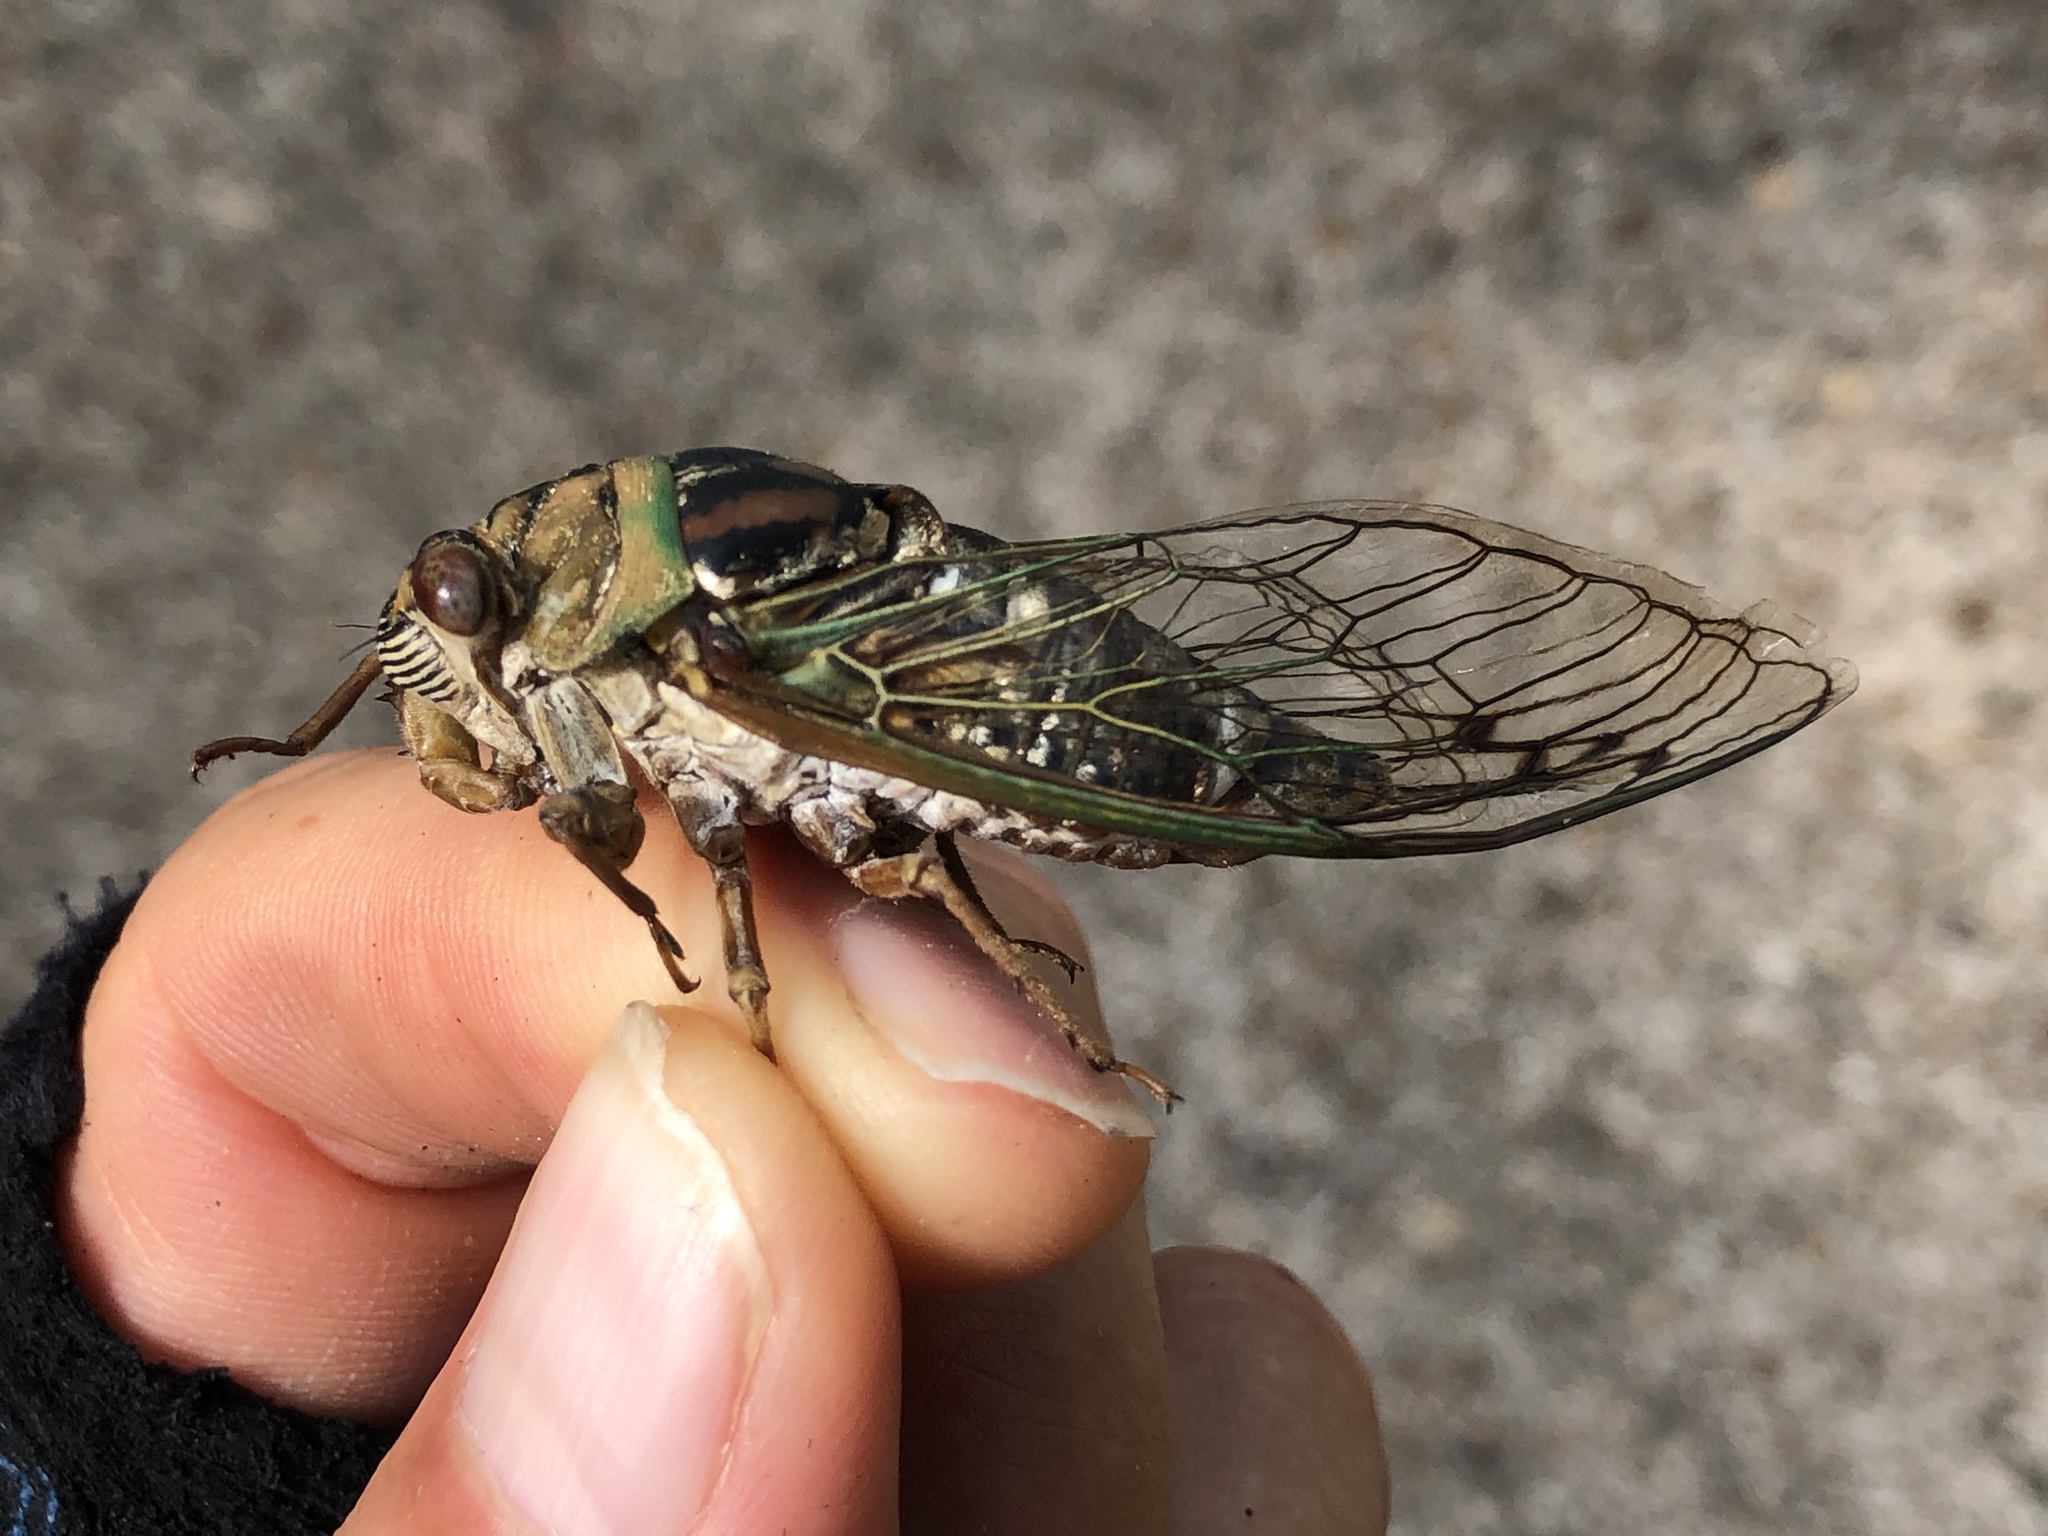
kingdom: Animalia
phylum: Arthropoda
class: Insecta
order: Hemiptera
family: Cicadidae
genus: Megatibicen
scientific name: Megatibicen resh
